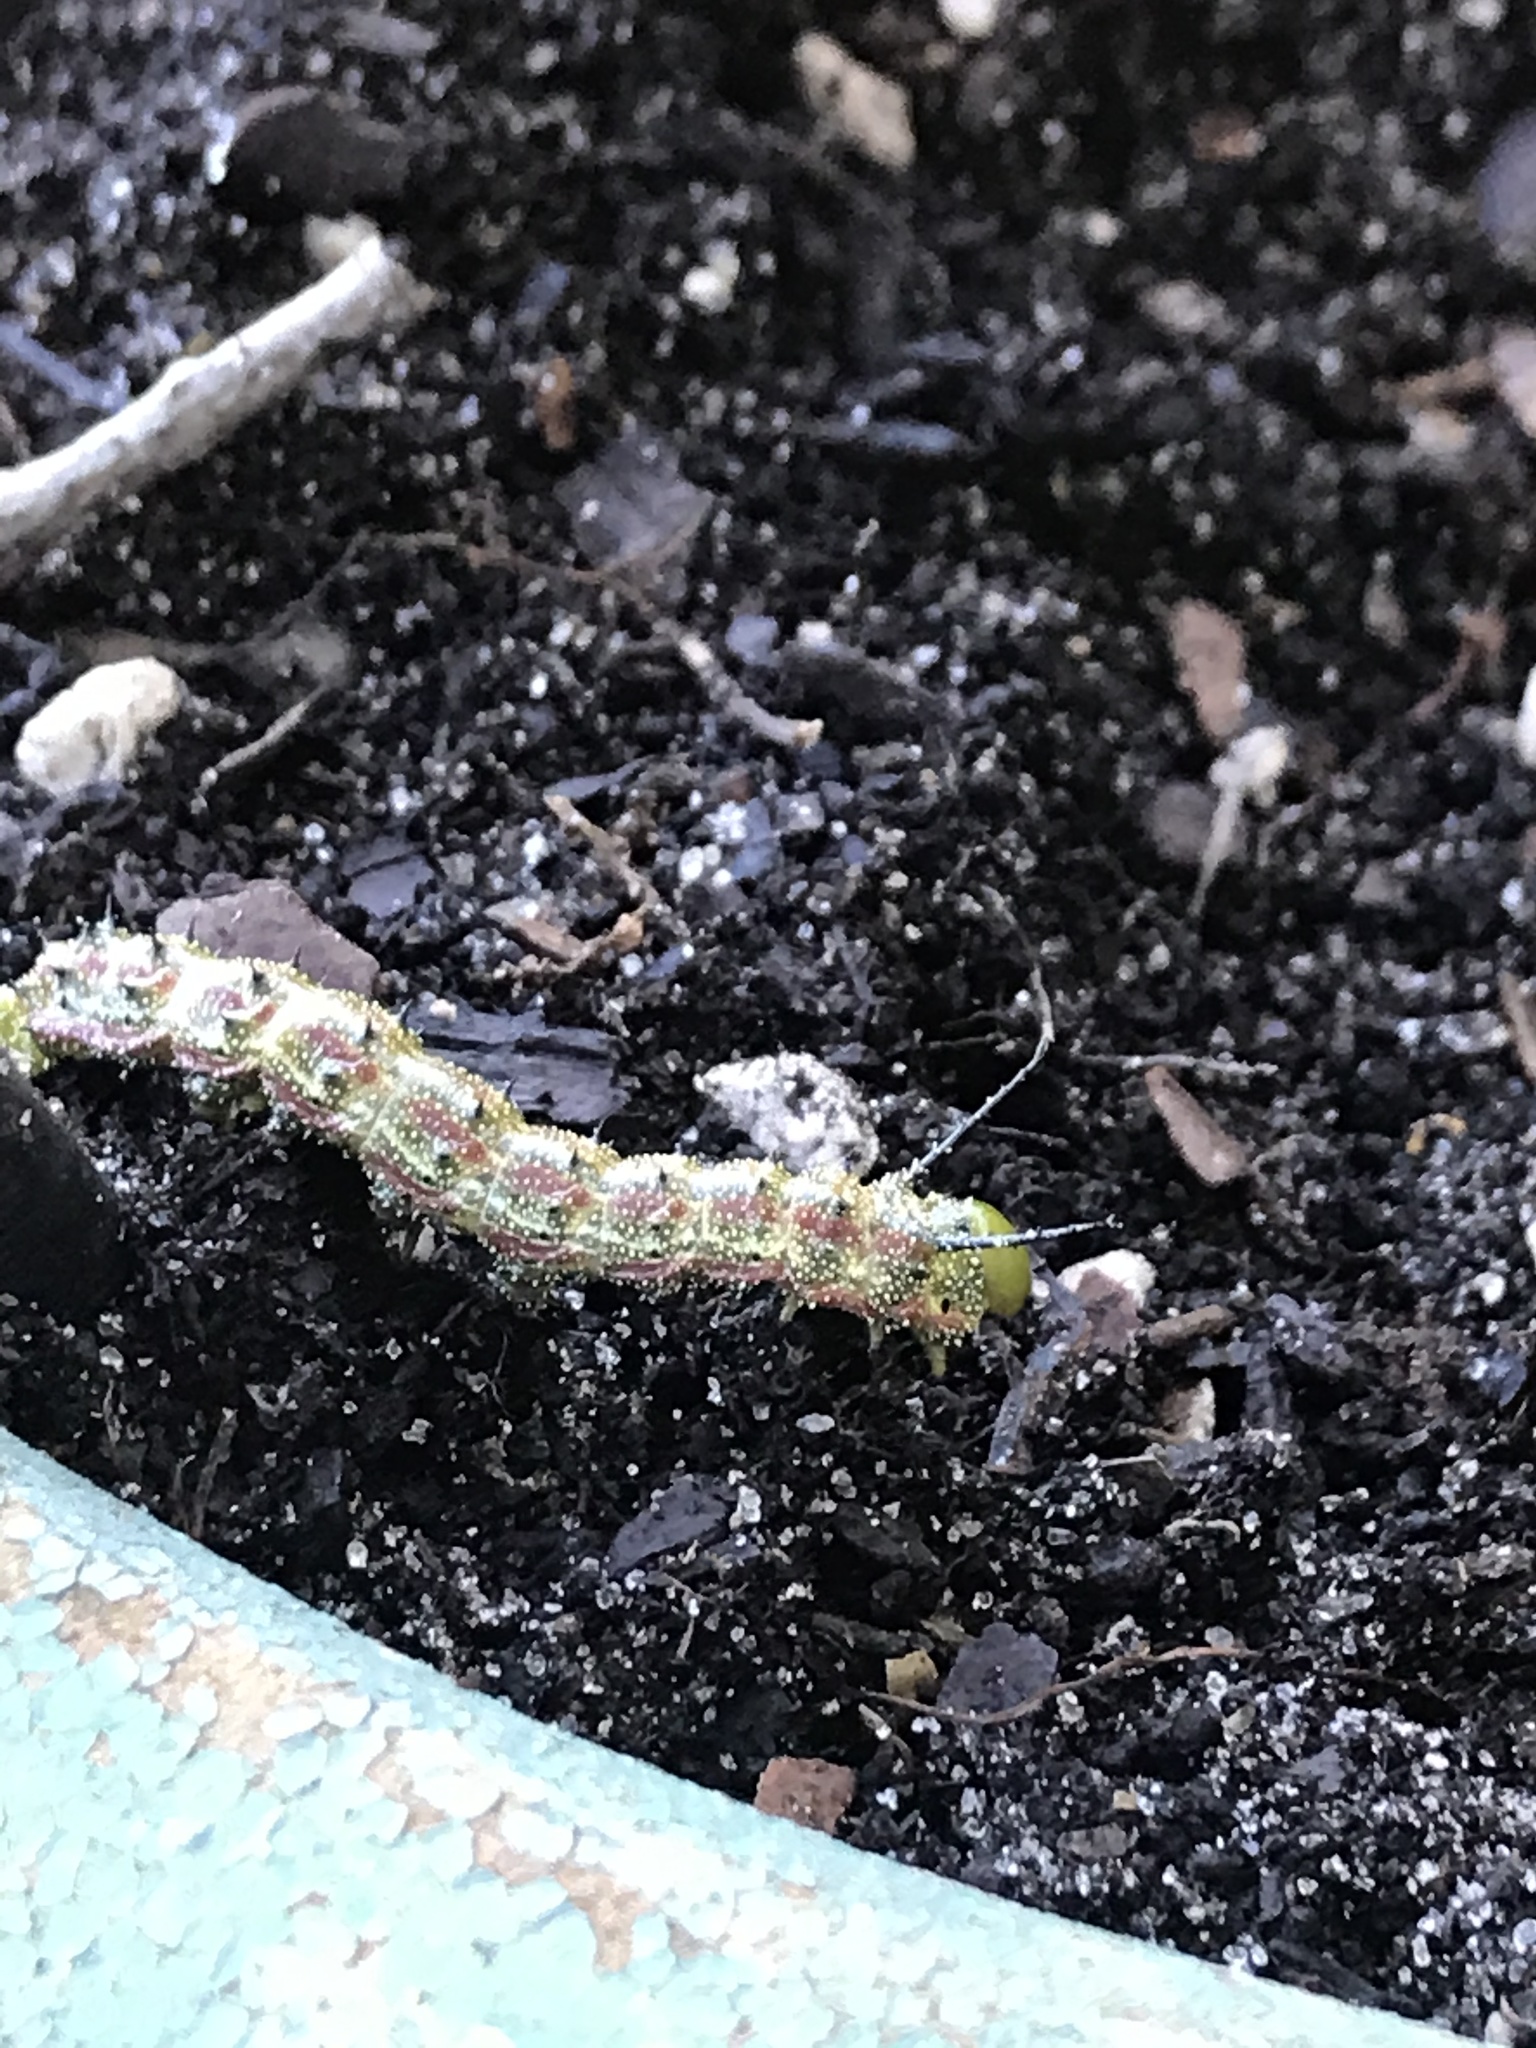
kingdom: Animalia
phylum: Arthropoda
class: Insecta
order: Lepidoptera
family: Saturniidae
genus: Anisota
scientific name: Anisota virginiensis
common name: Pink striped oakworm moth
